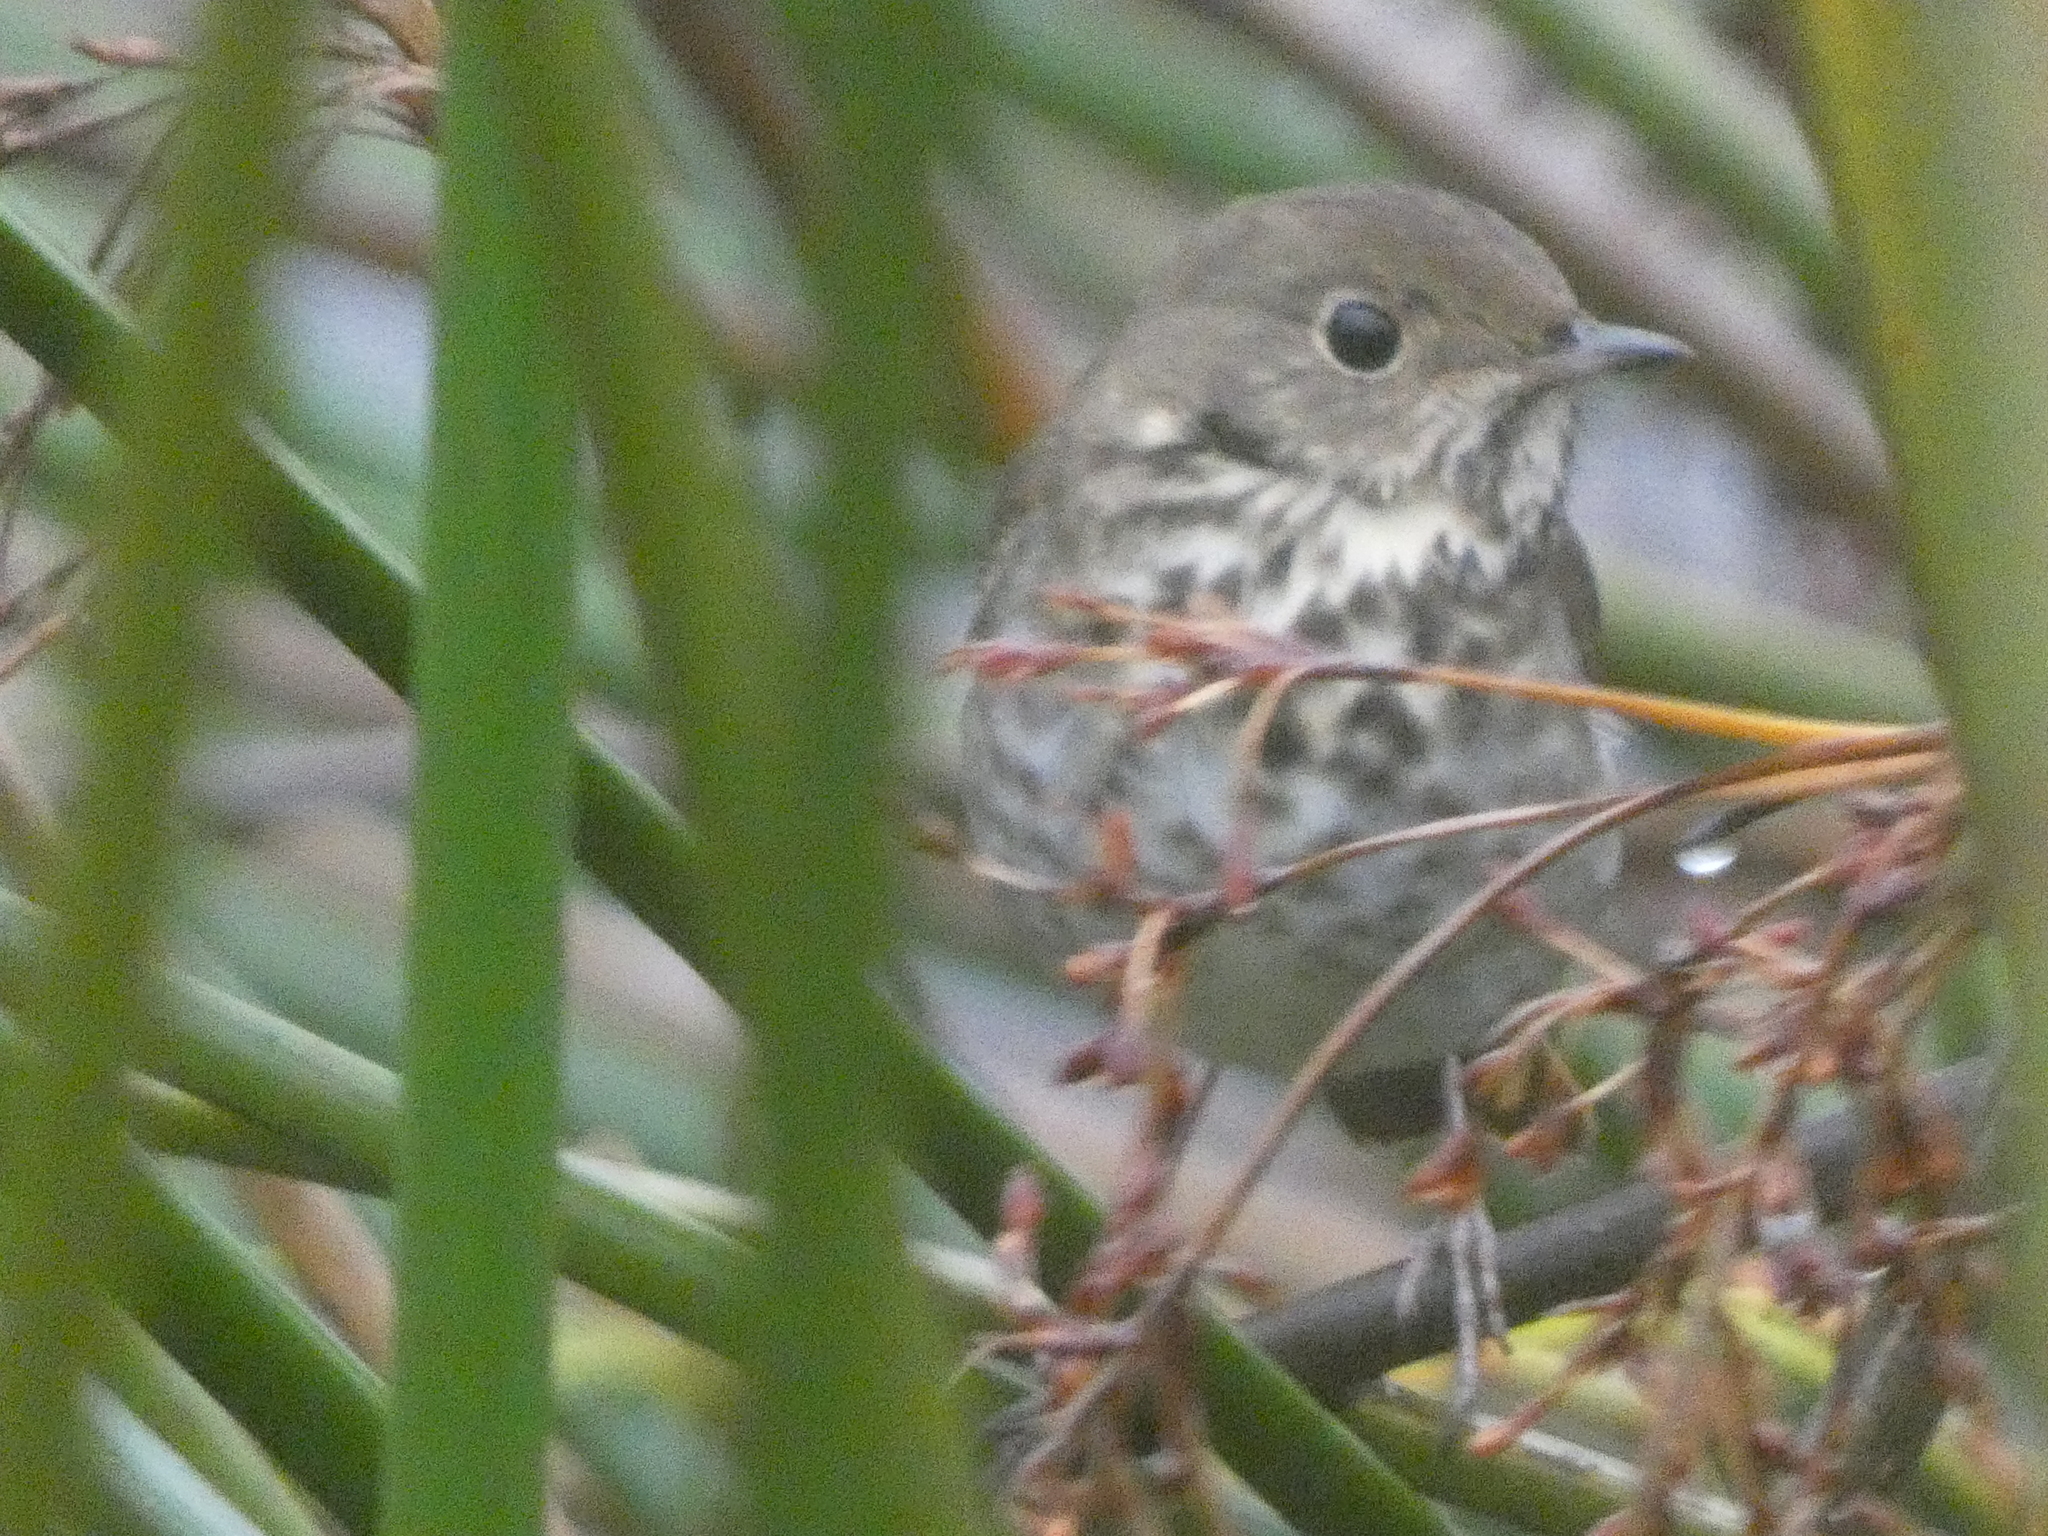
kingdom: Animalia
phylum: Chordata
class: Aves
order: Passeriformes
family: Turdidae
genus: Catharus
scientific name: Catharus guttatus
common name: Hermit thrush
